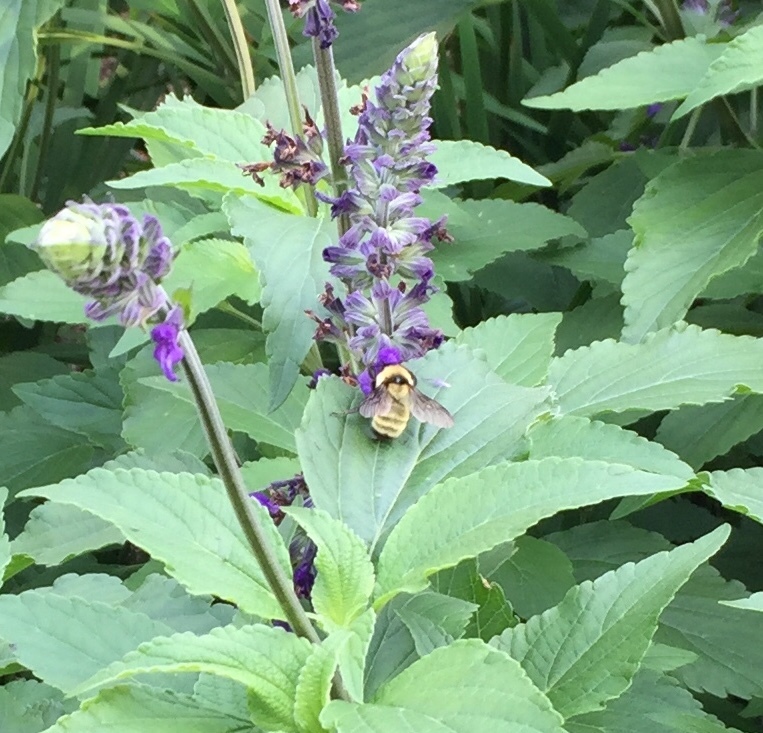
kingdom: Animalia
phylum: Arthropoda
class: Insecta
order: Hymenoptera
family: Apidae
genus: Bombus
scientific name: Bombus fervidus
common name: Yellow bumble bee
